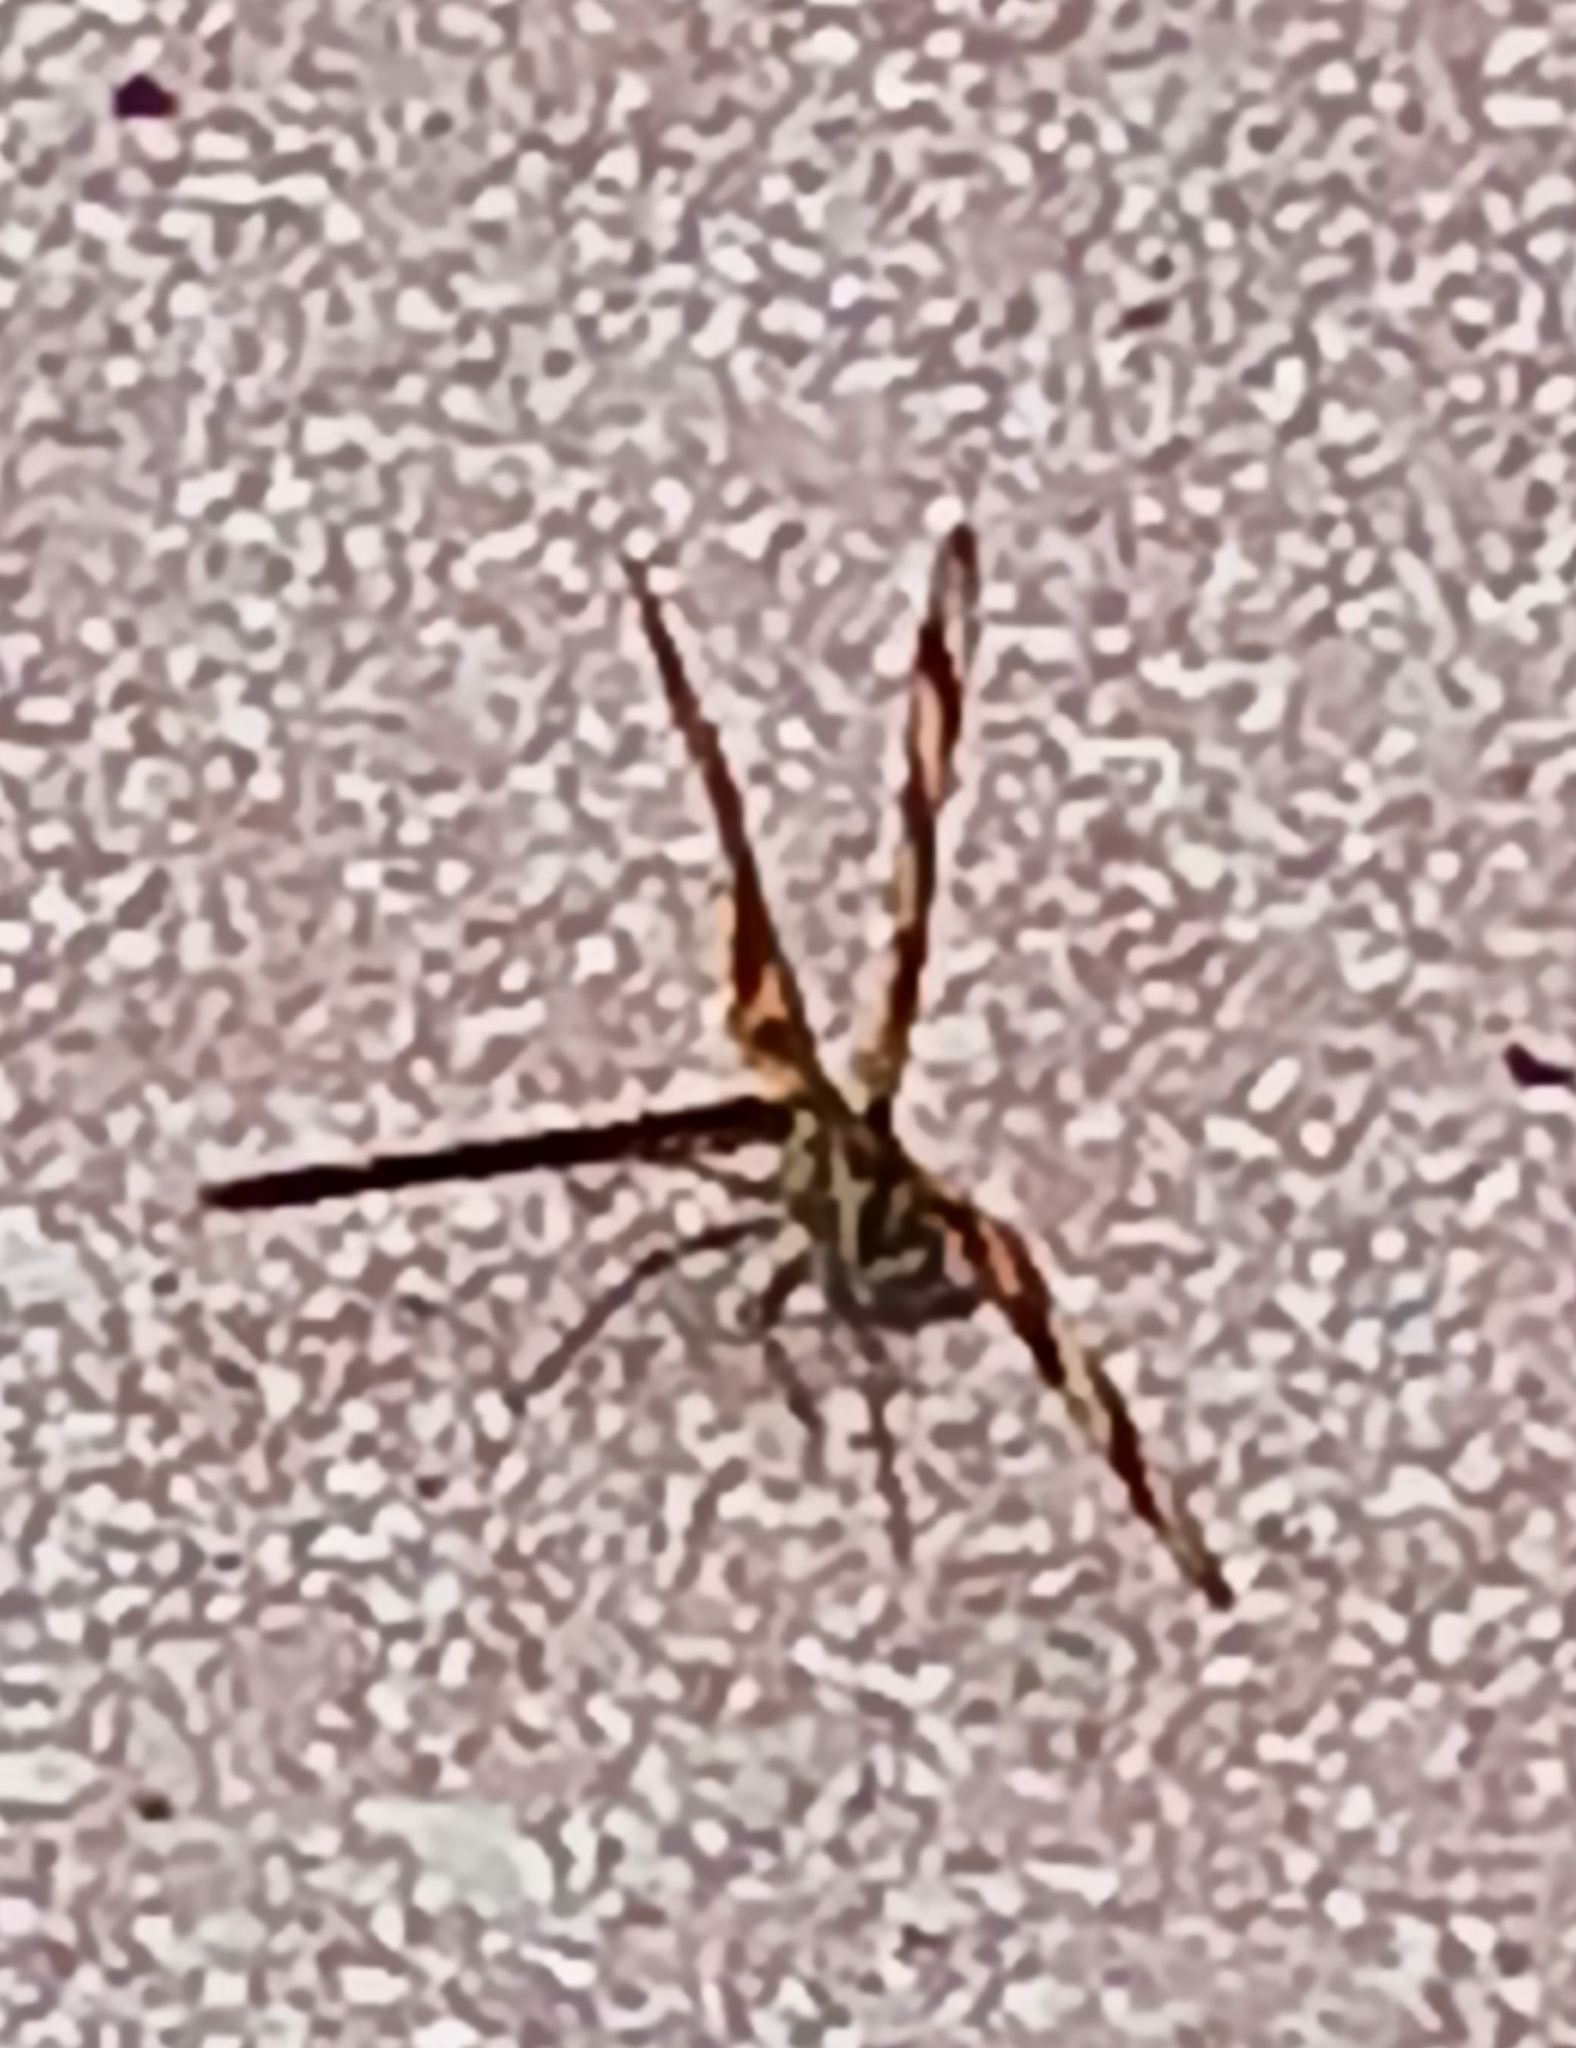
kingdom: Animalia
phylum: Arthropoda
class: Insecta
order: Odonata
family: Libellulidae
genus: Celithemis
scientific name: Celithemis eponina
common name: Halloween pennant
